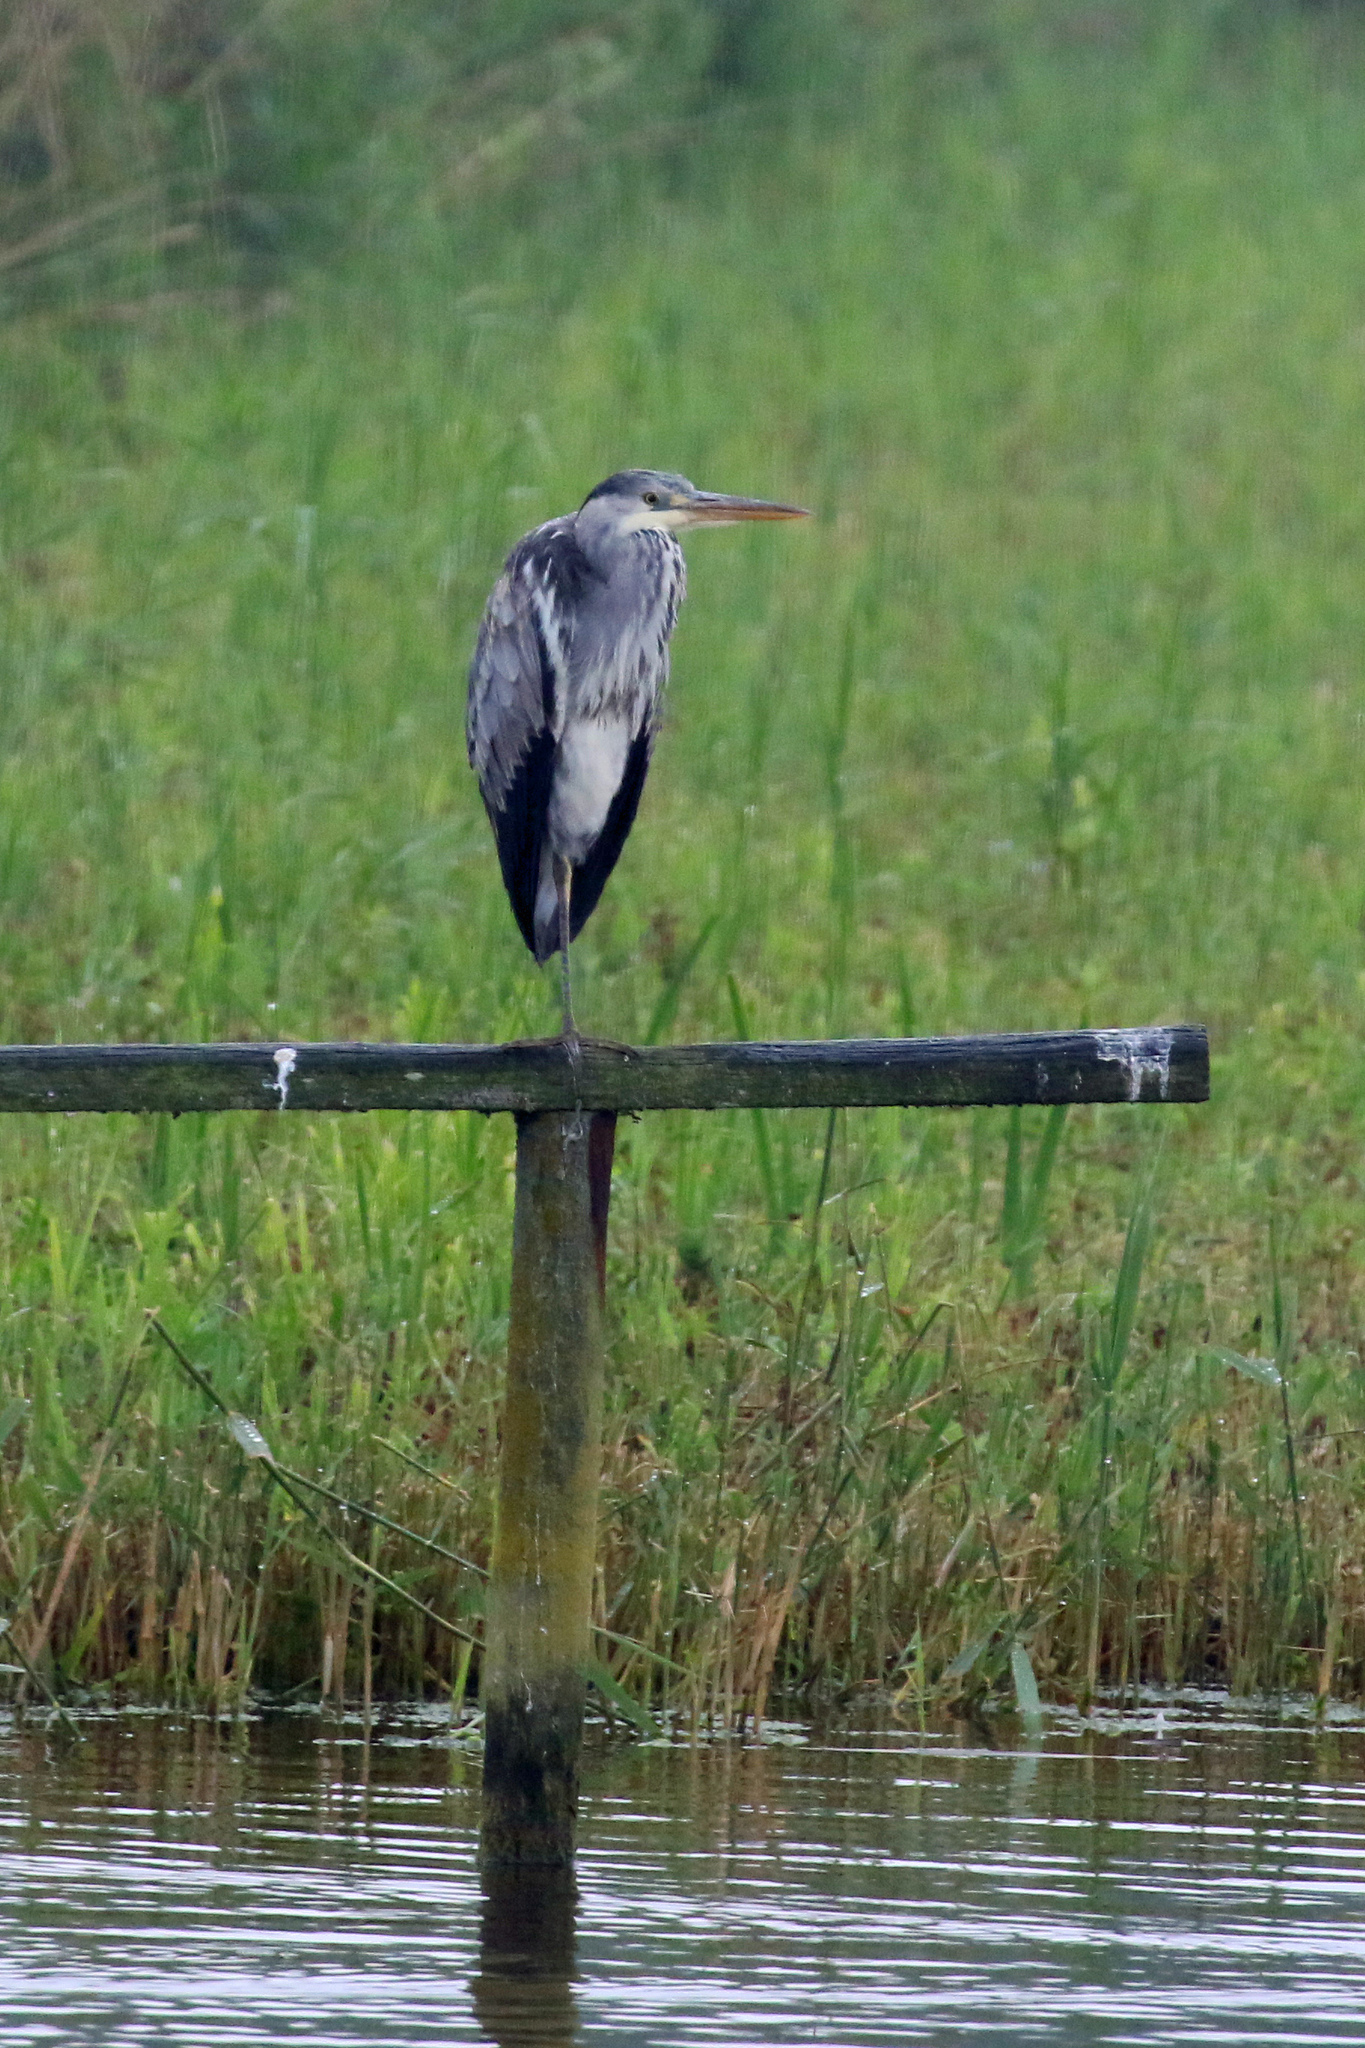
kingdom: Animalia
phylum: Chordata
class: Aves
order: Pelecaniformes
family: Ardeidae
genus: Ardea
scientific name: Ardea cinerea
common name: Grey heron
